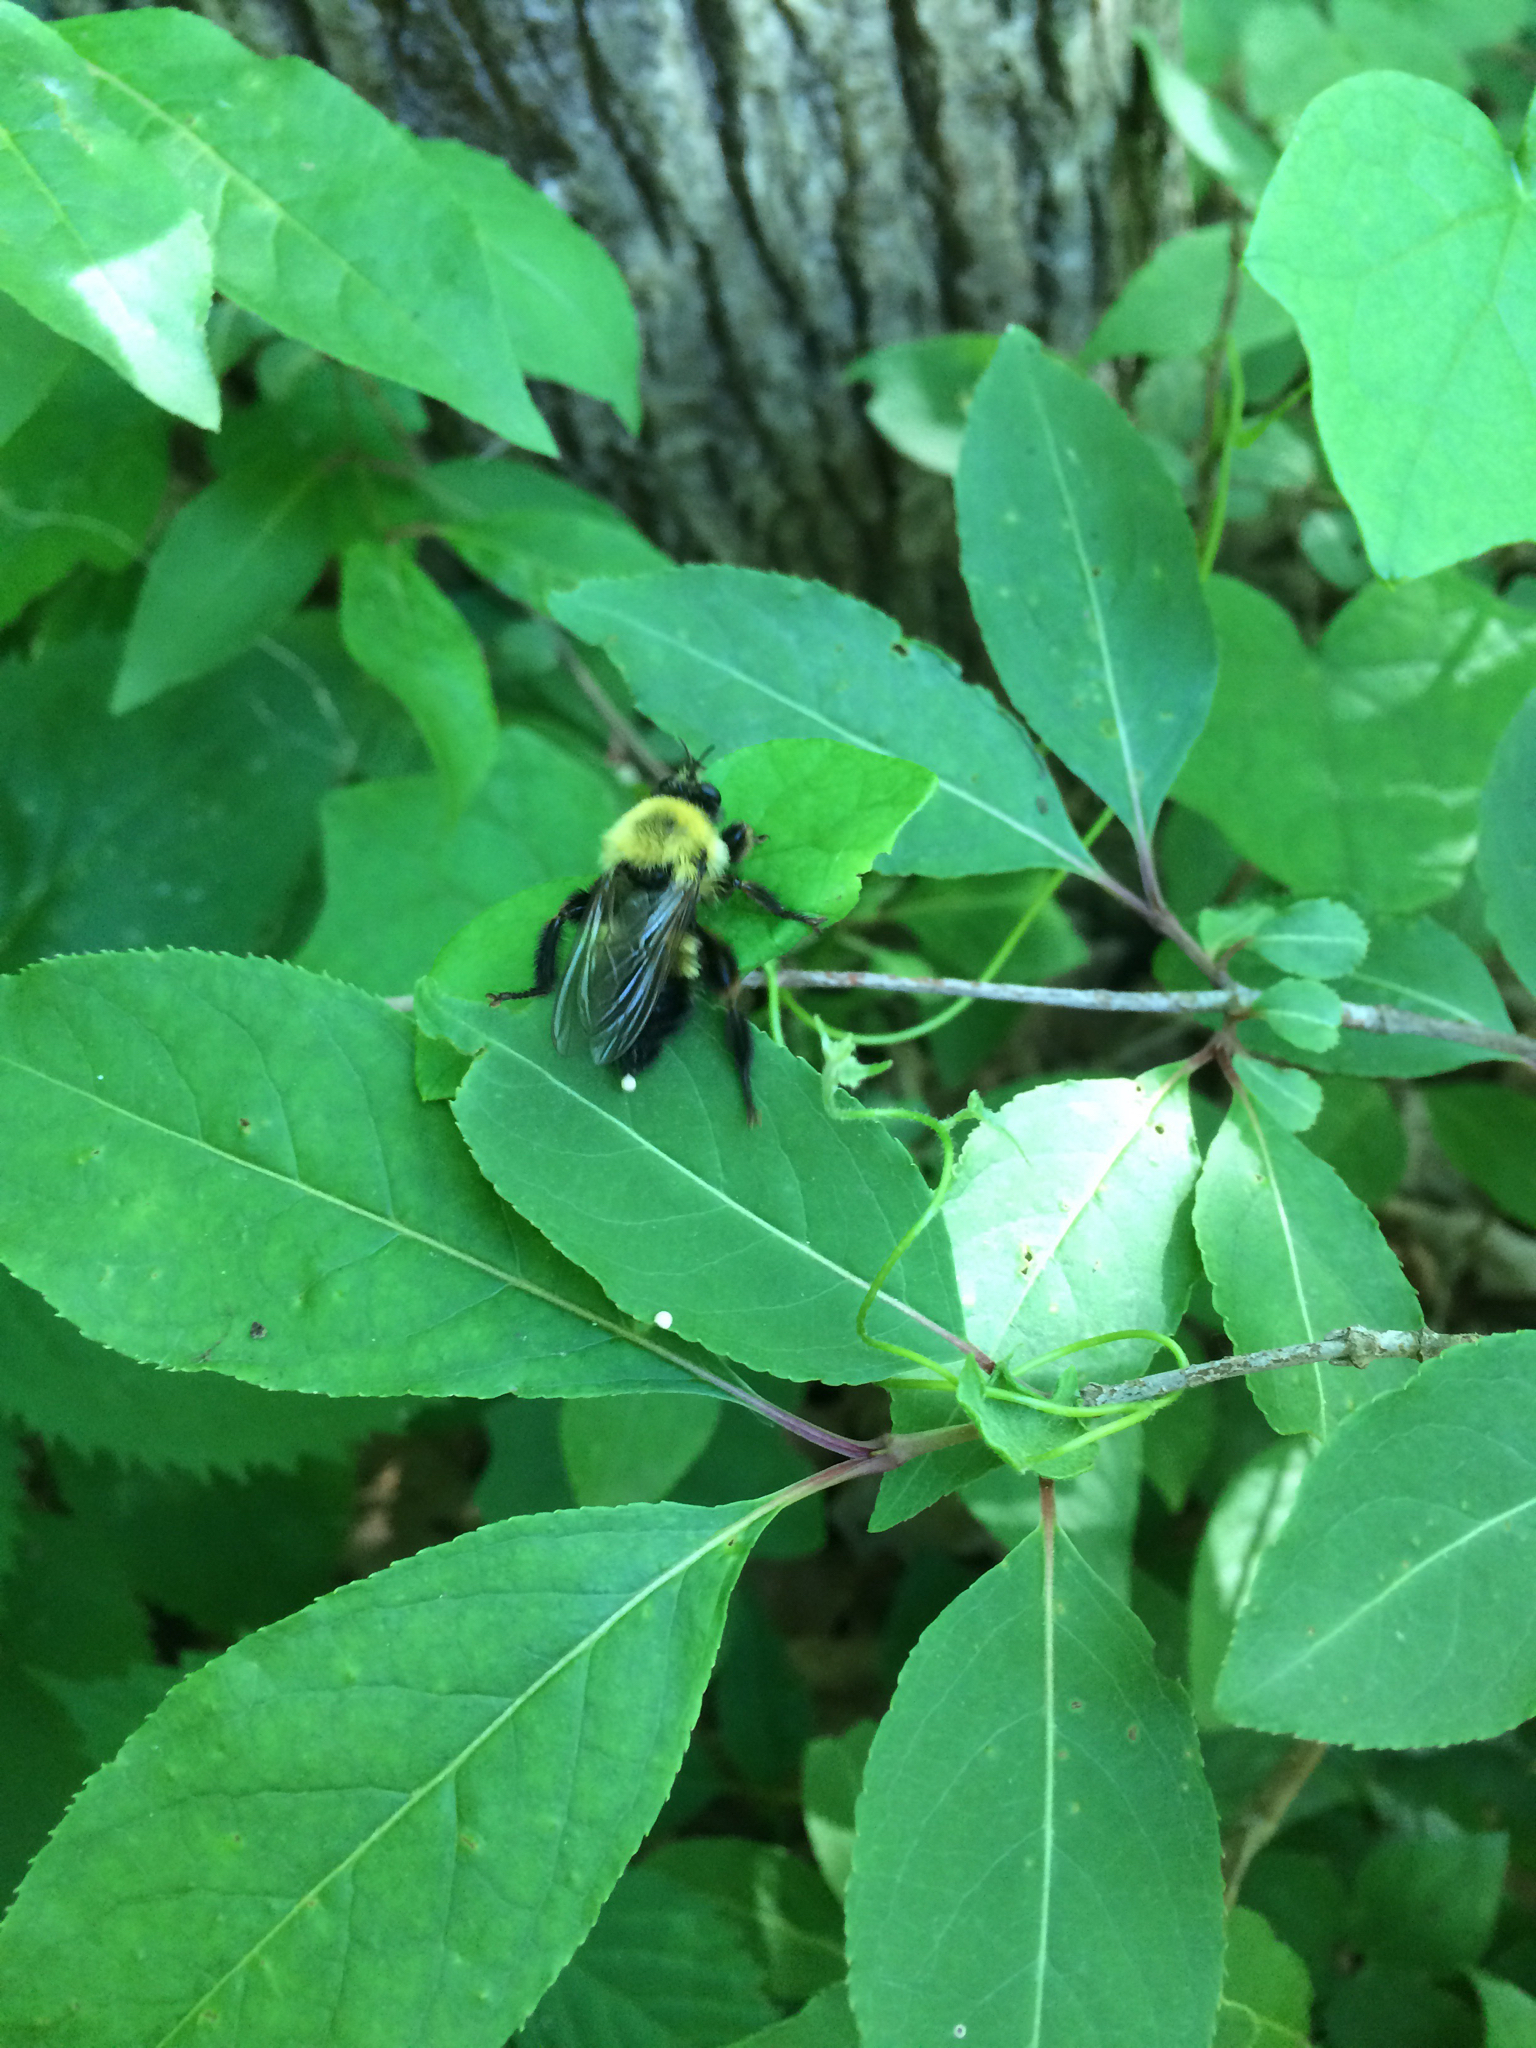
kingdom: Animalia
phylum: Arthropoda
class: Insecta
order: Diptera
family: Asilidae
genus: Laphria
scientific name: Laphria thoracica
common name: Bumble bee mimic robber fly
